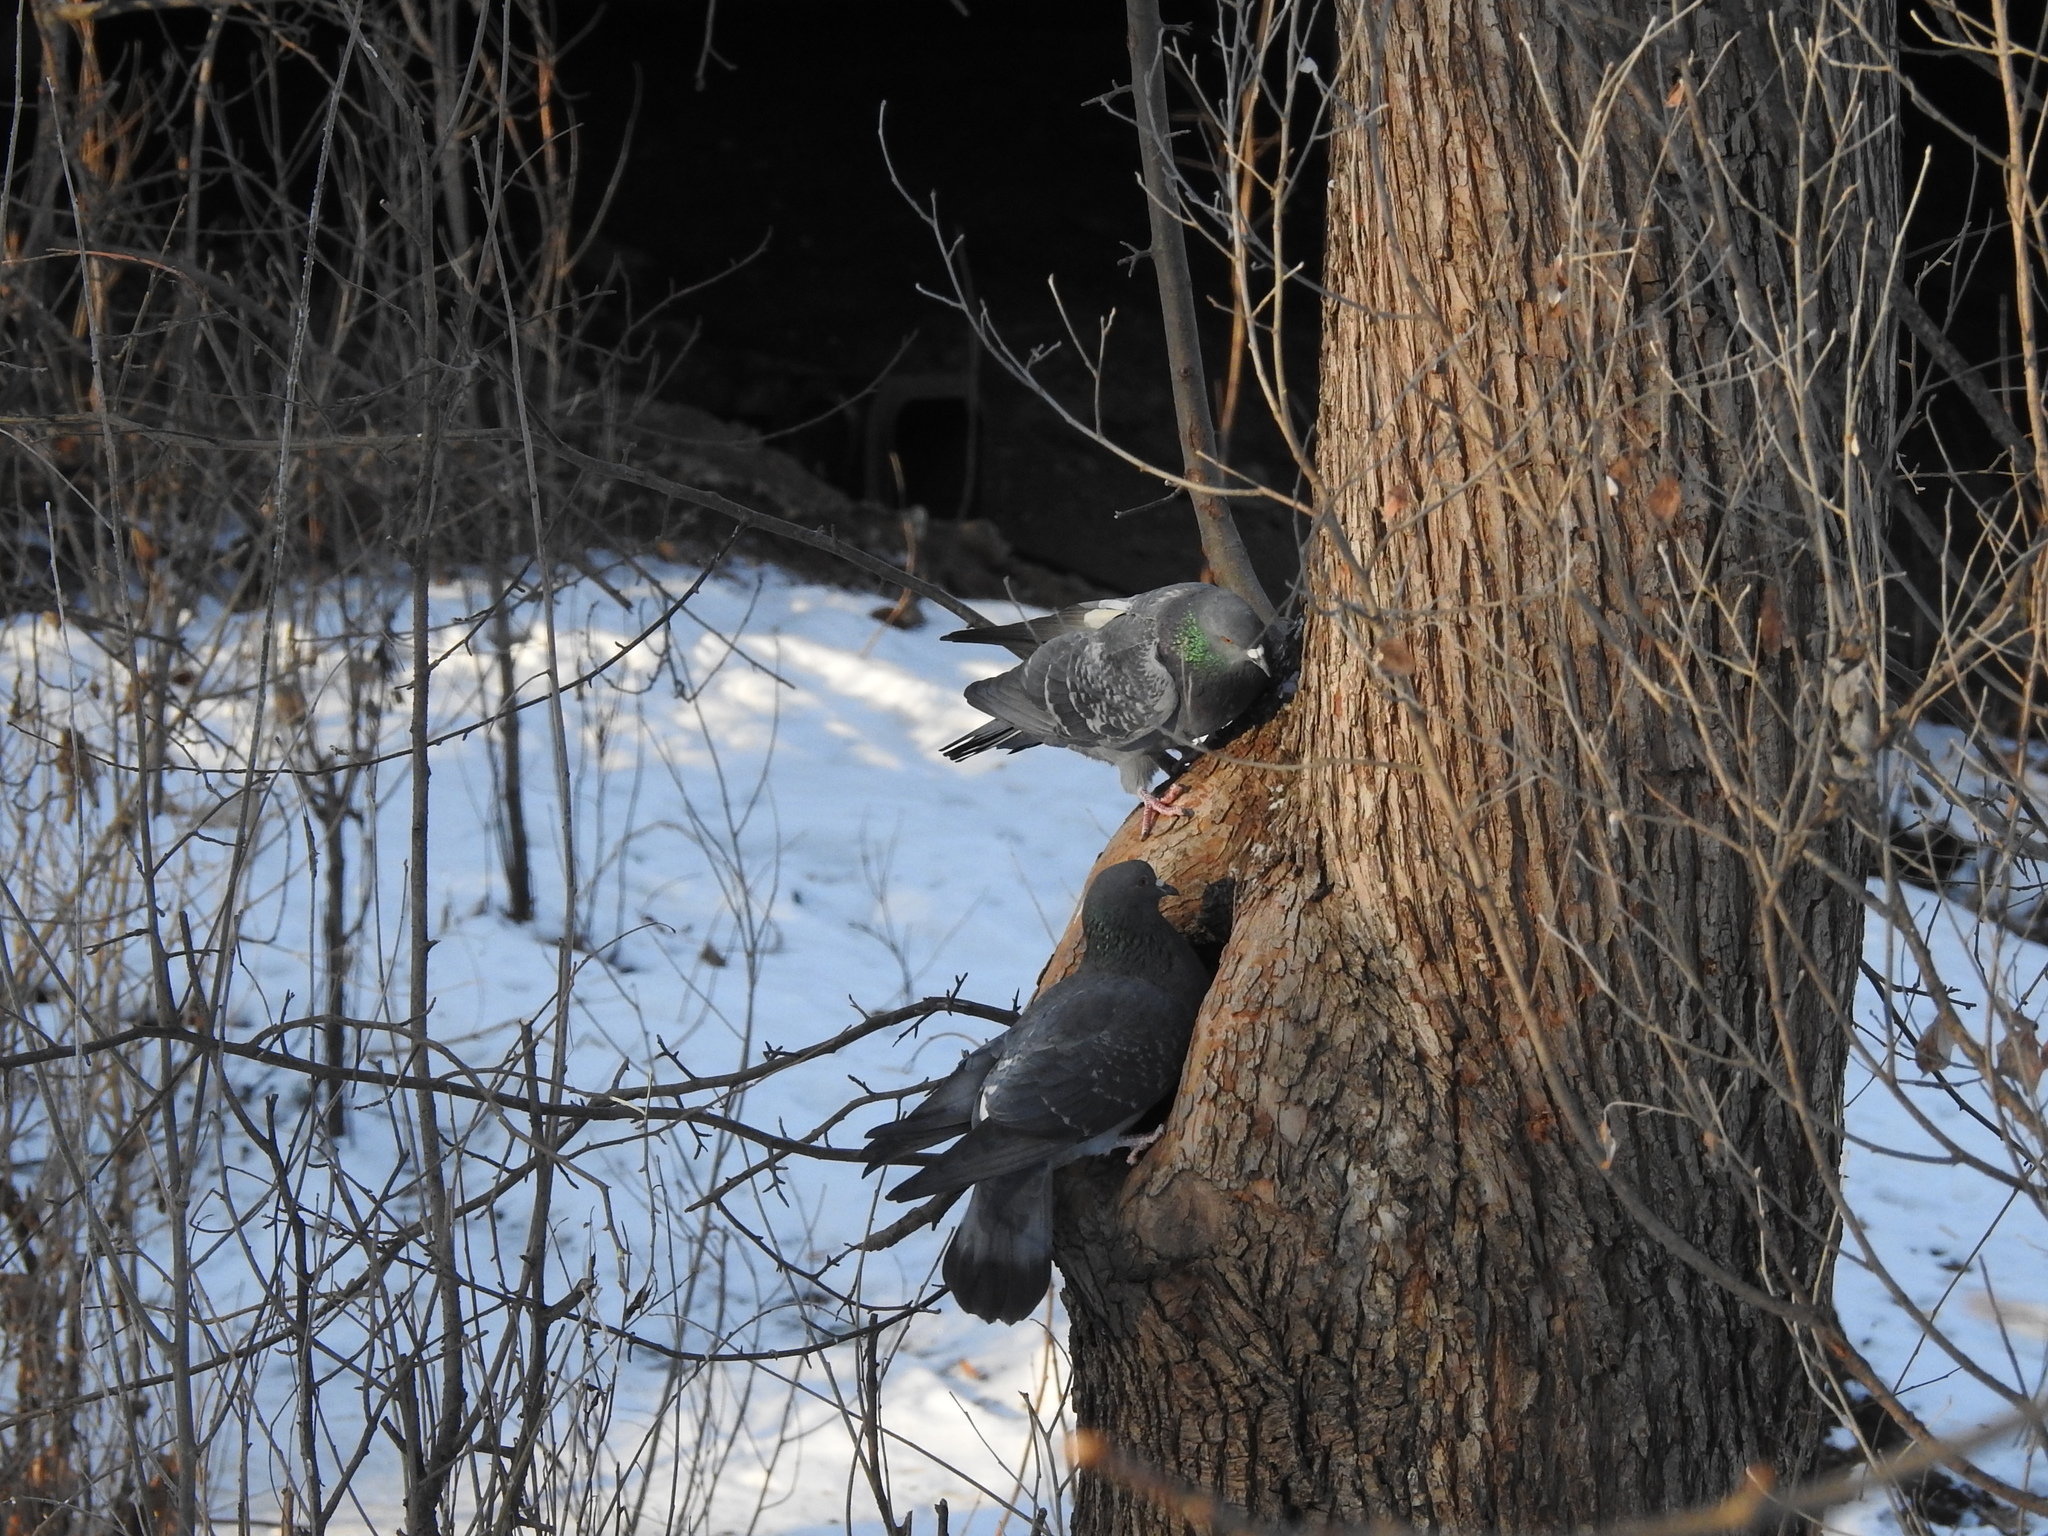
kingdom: Animalia
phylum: Chordata
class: Aves
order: Columbiformes
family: Columbidae
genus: Columba
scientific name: Columba livia
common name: Rock pigeon
